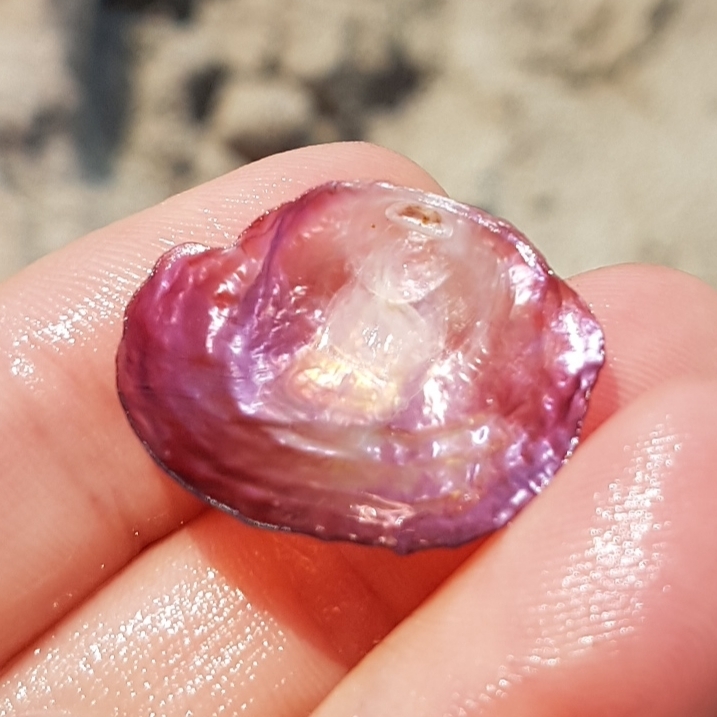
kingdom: Animalia
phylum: Mollusca
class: Bivalvia
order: Pectinida
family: Anomiidae
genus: Anomia
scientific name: Anomia ephippium
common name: Saddle oyster
